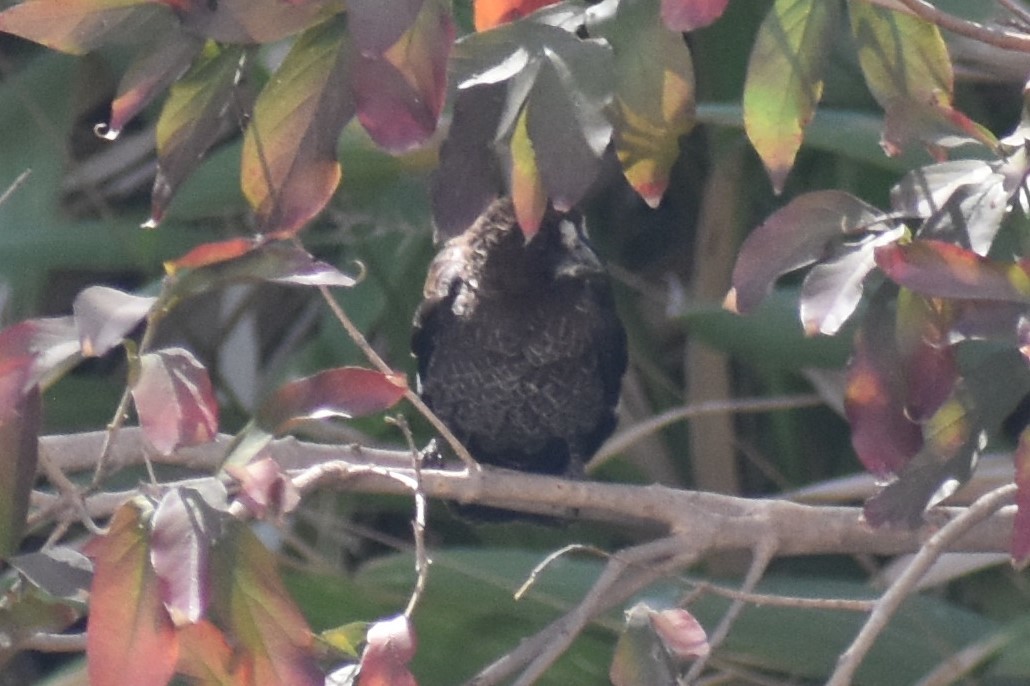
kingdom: Animalia
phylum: Chordata
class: Aves
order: Passeriformes
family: Ploceidae
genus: Amblyospiza
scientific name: Amblyospiza albifrons
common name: Thick-billed weaver
